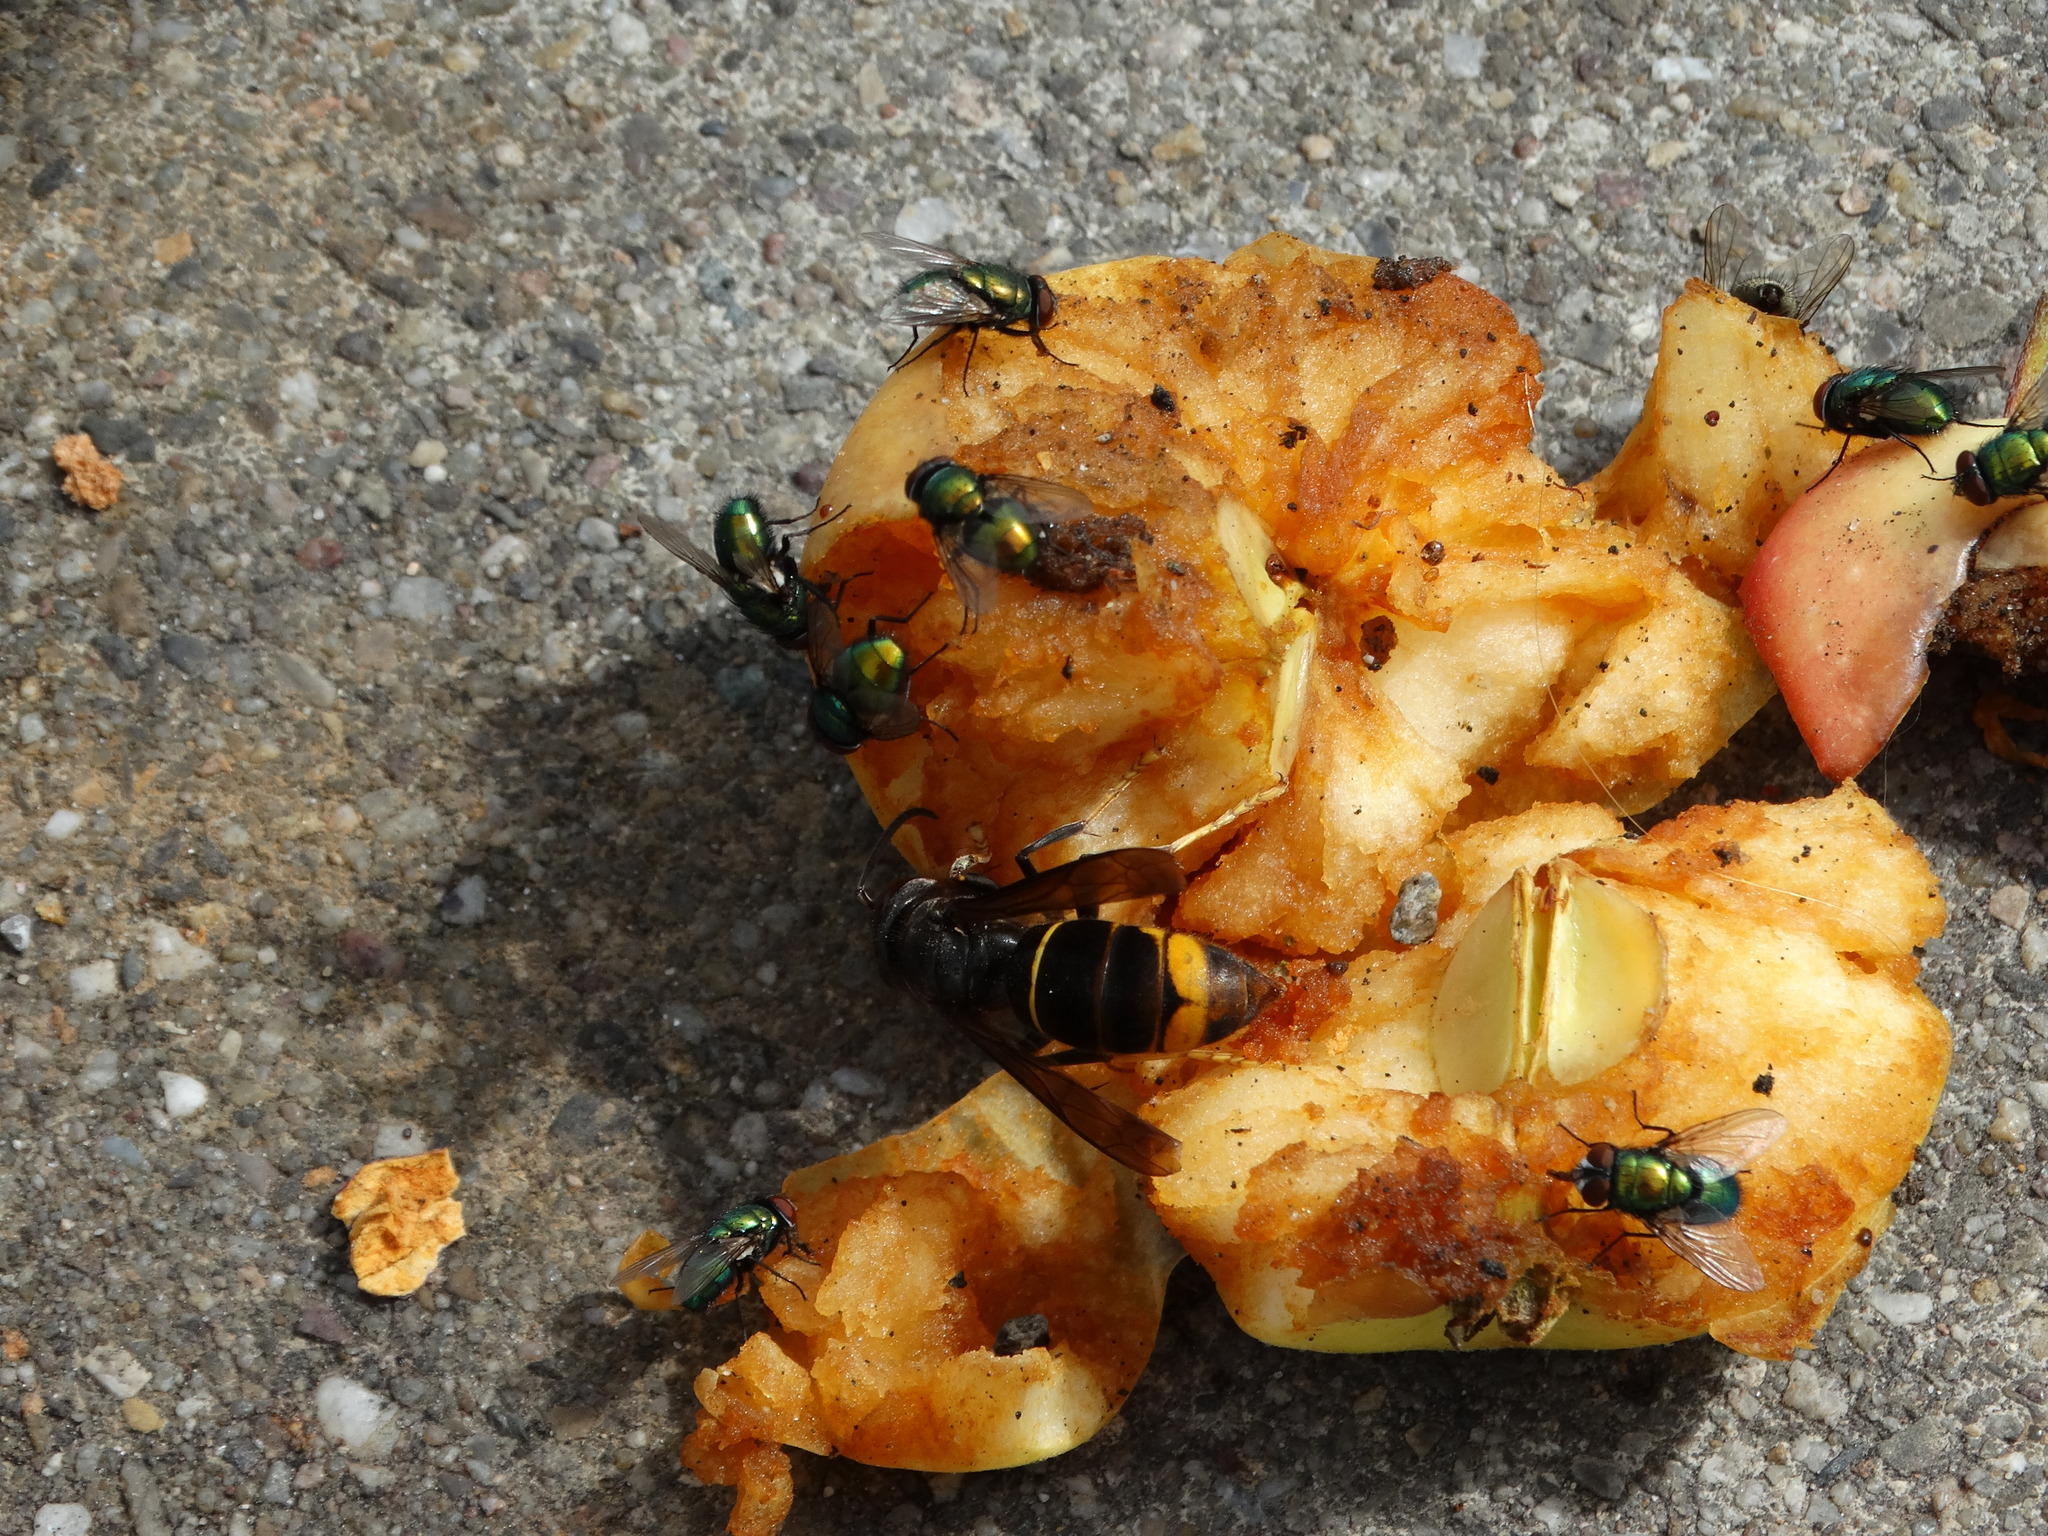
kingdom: Animalia
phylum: Arthropoda
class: Insecta
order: Hymenoptera
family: Vespidae
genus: Vespa
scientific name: Vespa velutina
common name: Asian hornet
